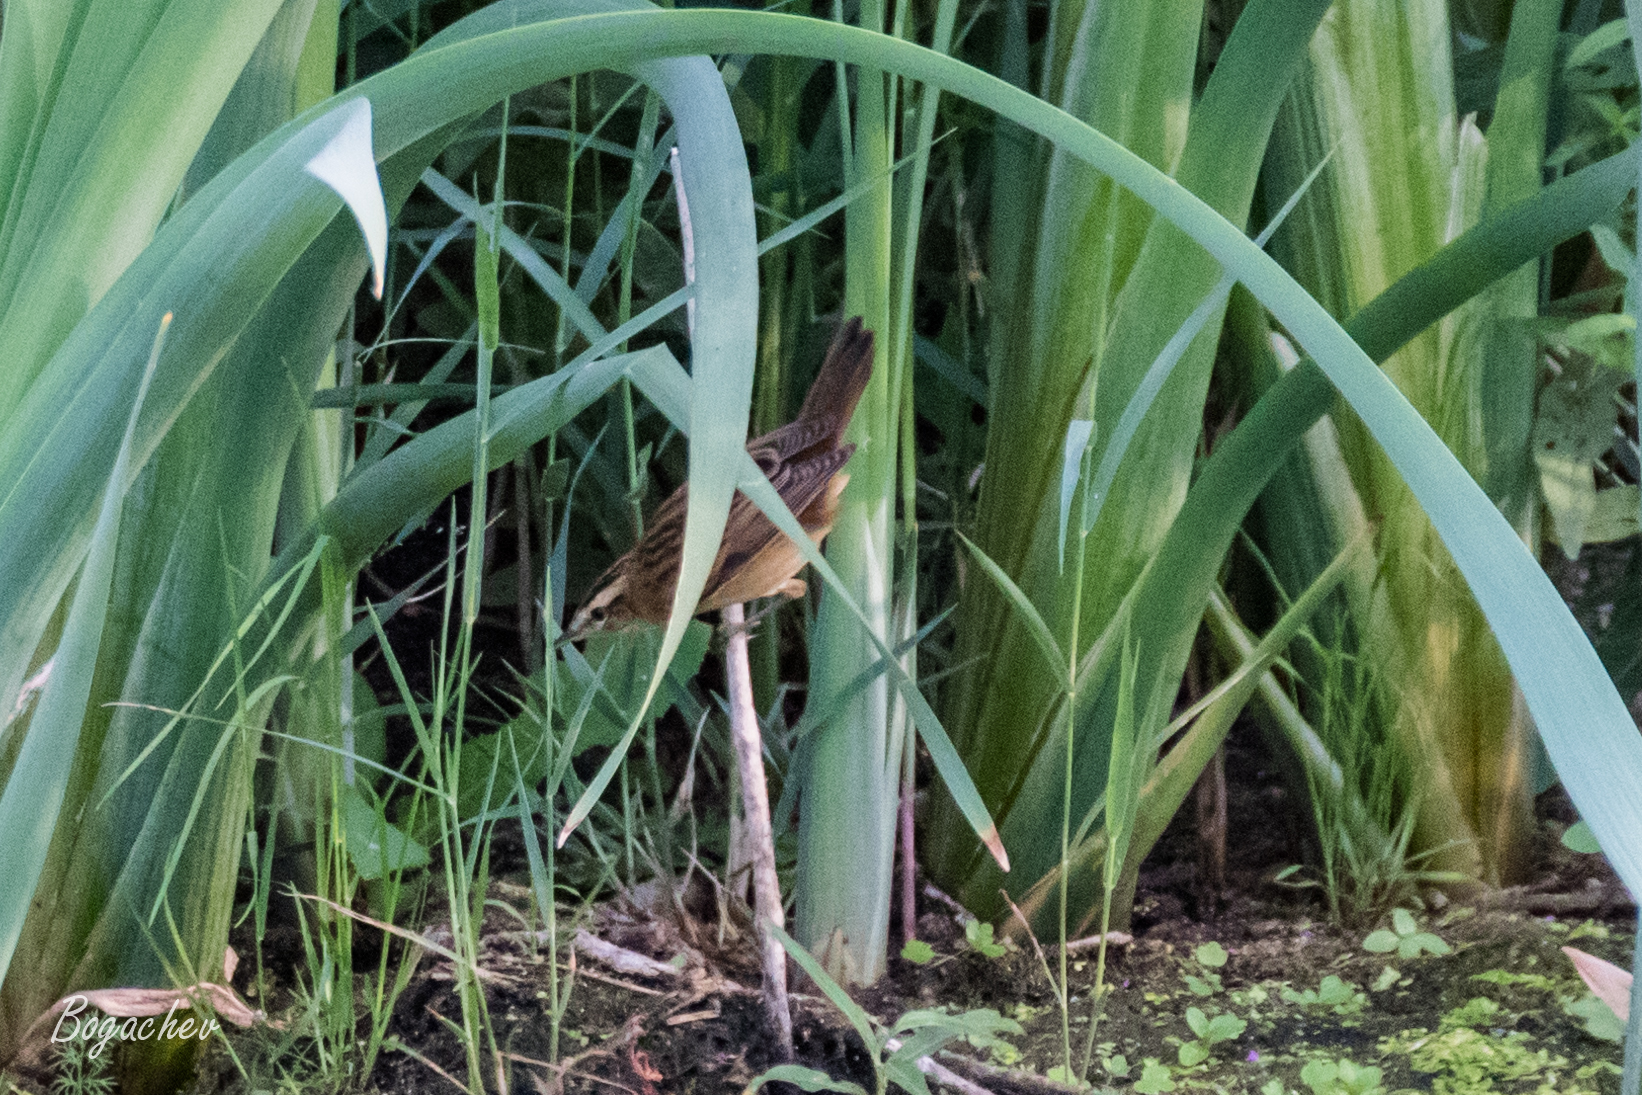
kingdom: Animalia
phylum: Chordata
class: Aves
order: Passeriformes
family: Acrocephalidae
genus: Acrocephalus
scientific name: Acrocephalus schoenobaenus
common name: Sedge warbler
